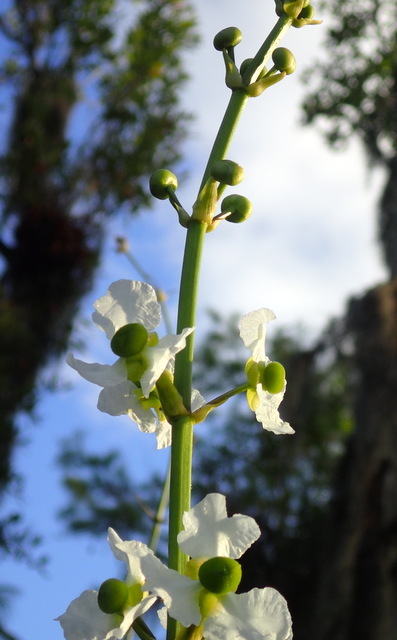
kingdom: Plantae
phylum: Tracheophyta
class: Liliopsida
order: Alismatales
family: Alismataceae
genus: Sagittaria
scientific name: Sagittaria lancifolia
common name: Lance-leaf arrowhead
